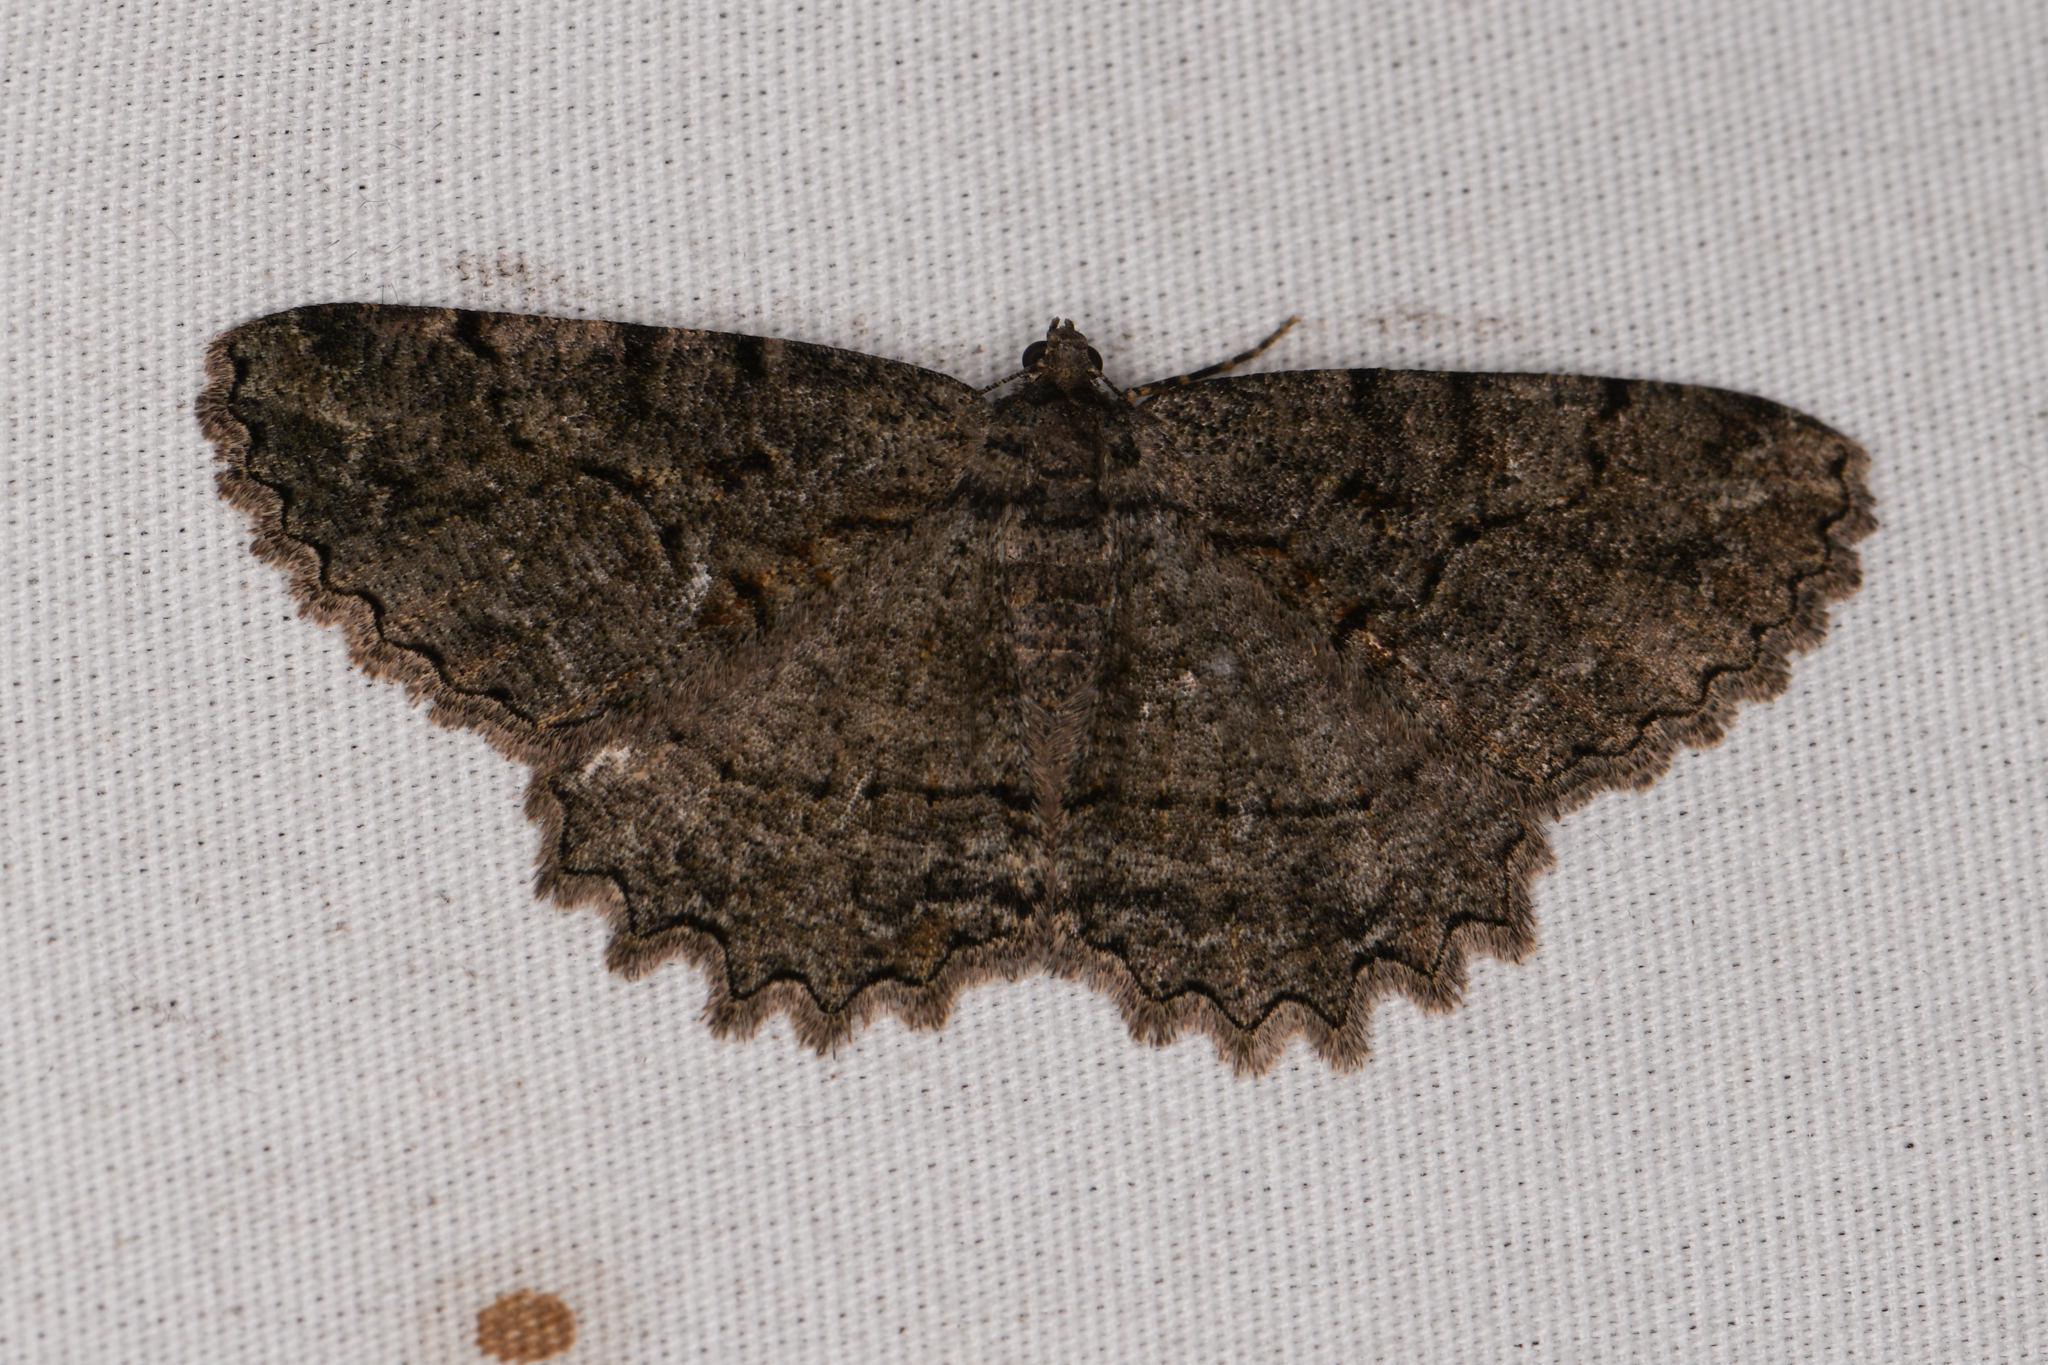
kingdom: Animalia
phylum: Arthropoda
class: Insecta
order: Lepidoptera
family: Geometridae
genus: Neoalcis
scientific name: Neoalcis californiaria
